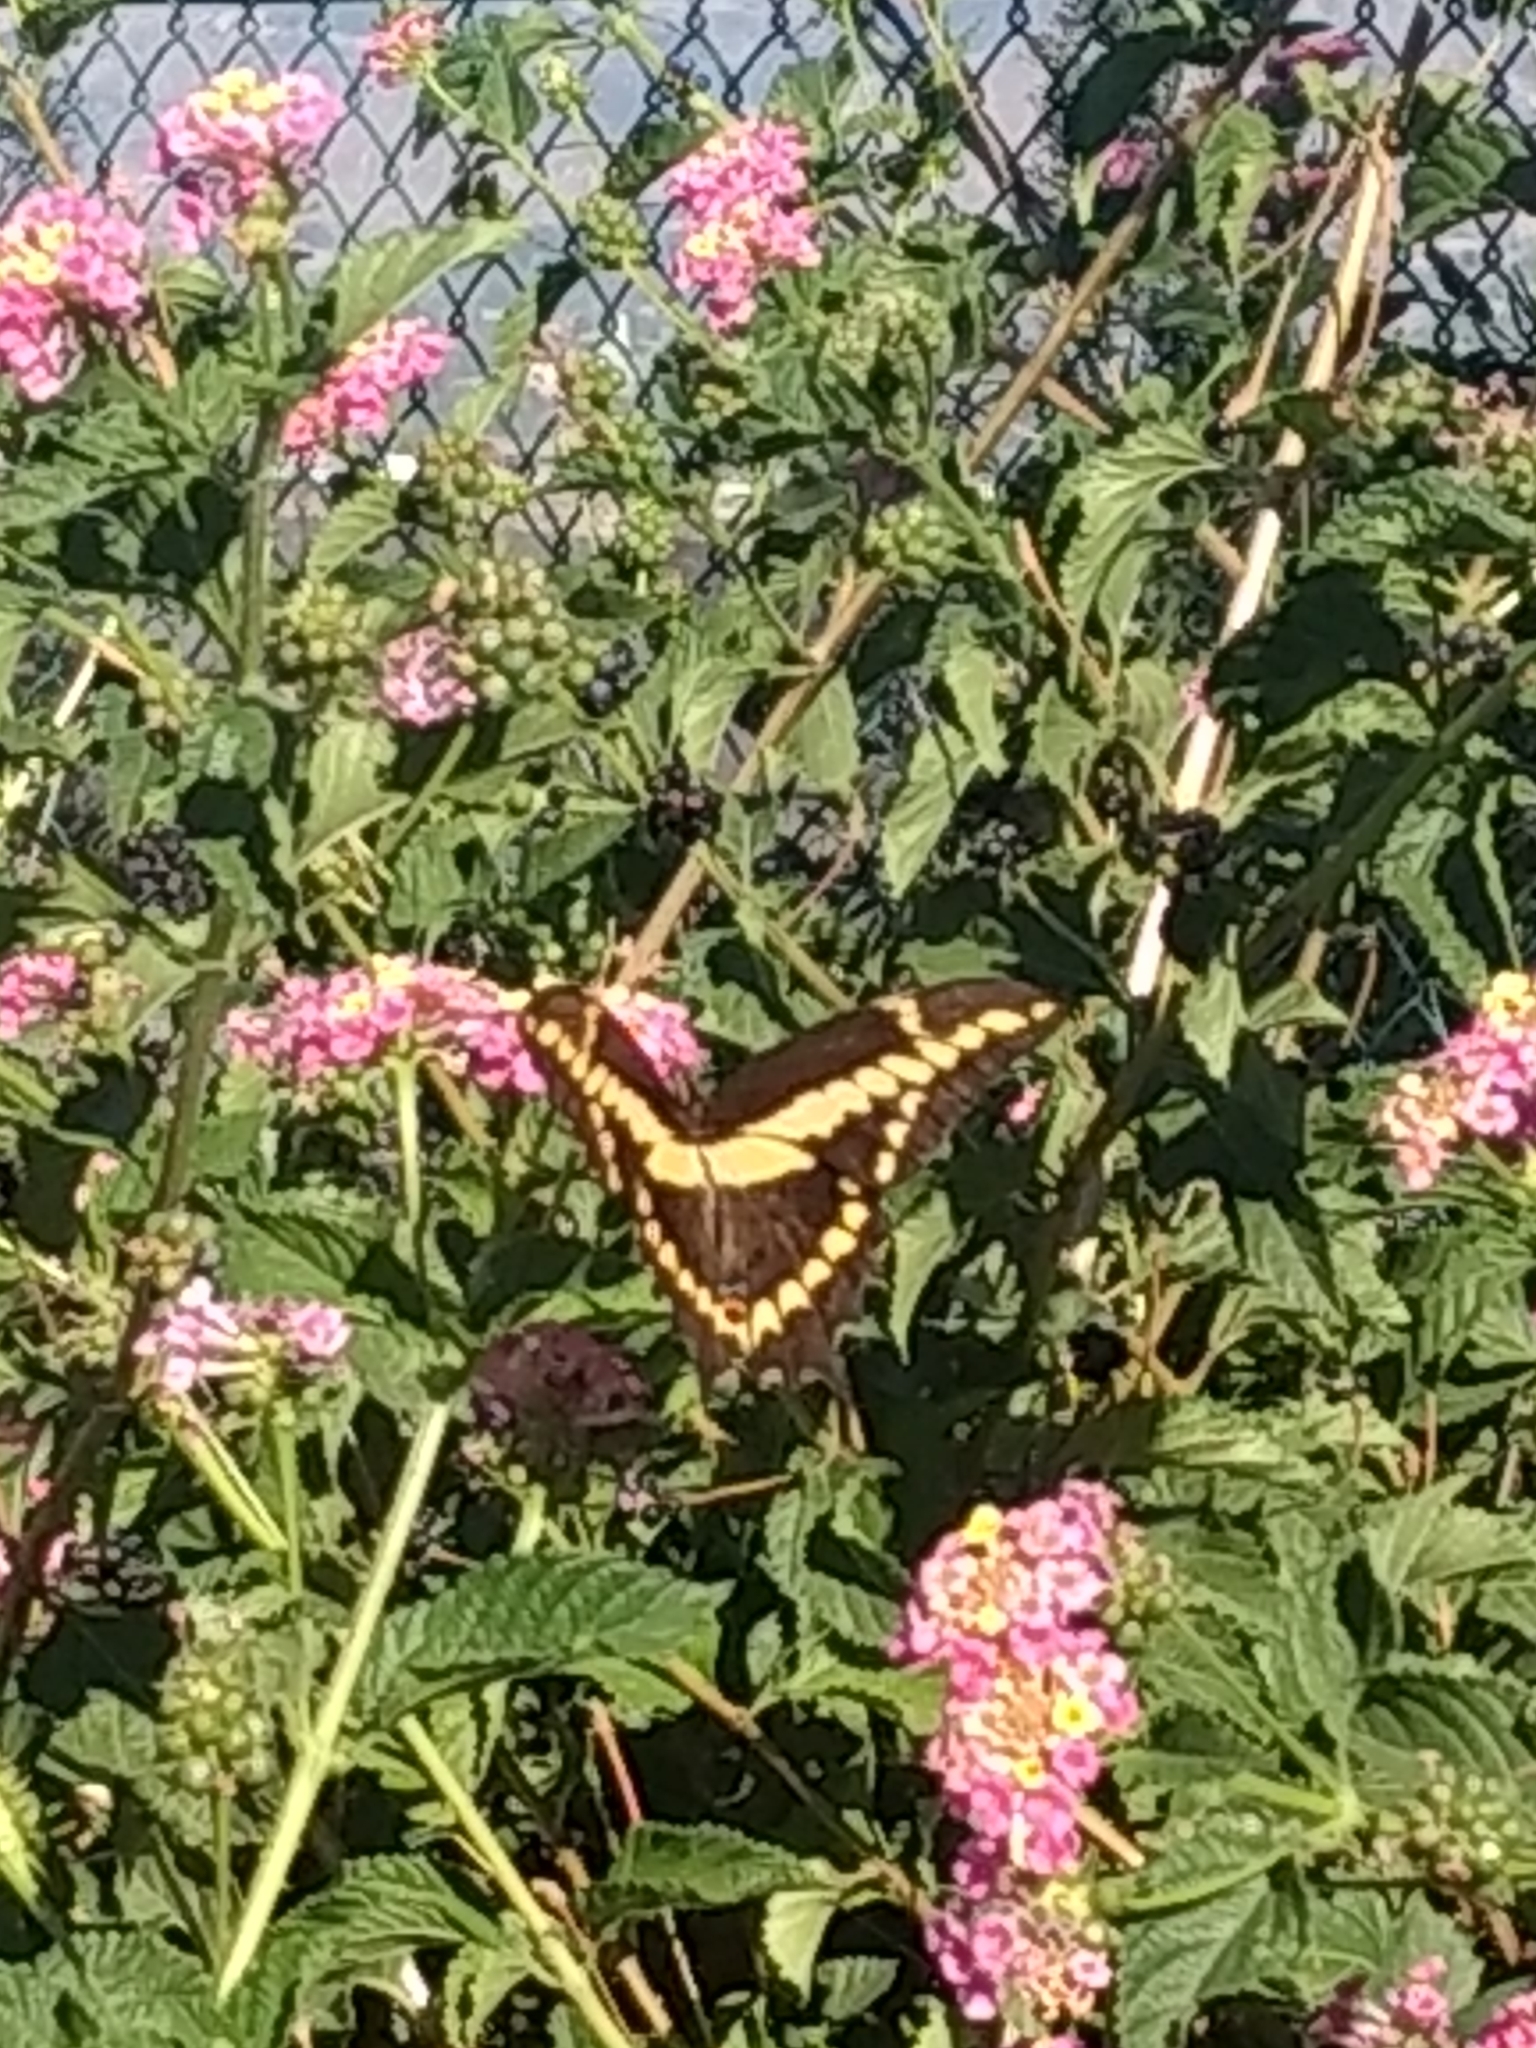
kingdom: Animalia
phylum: Arthropoda
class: Insecta
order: Lepidoptera
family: Papilionidae
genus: Papilio
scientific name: Papilio rumiko
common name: Western giant swallowtail
